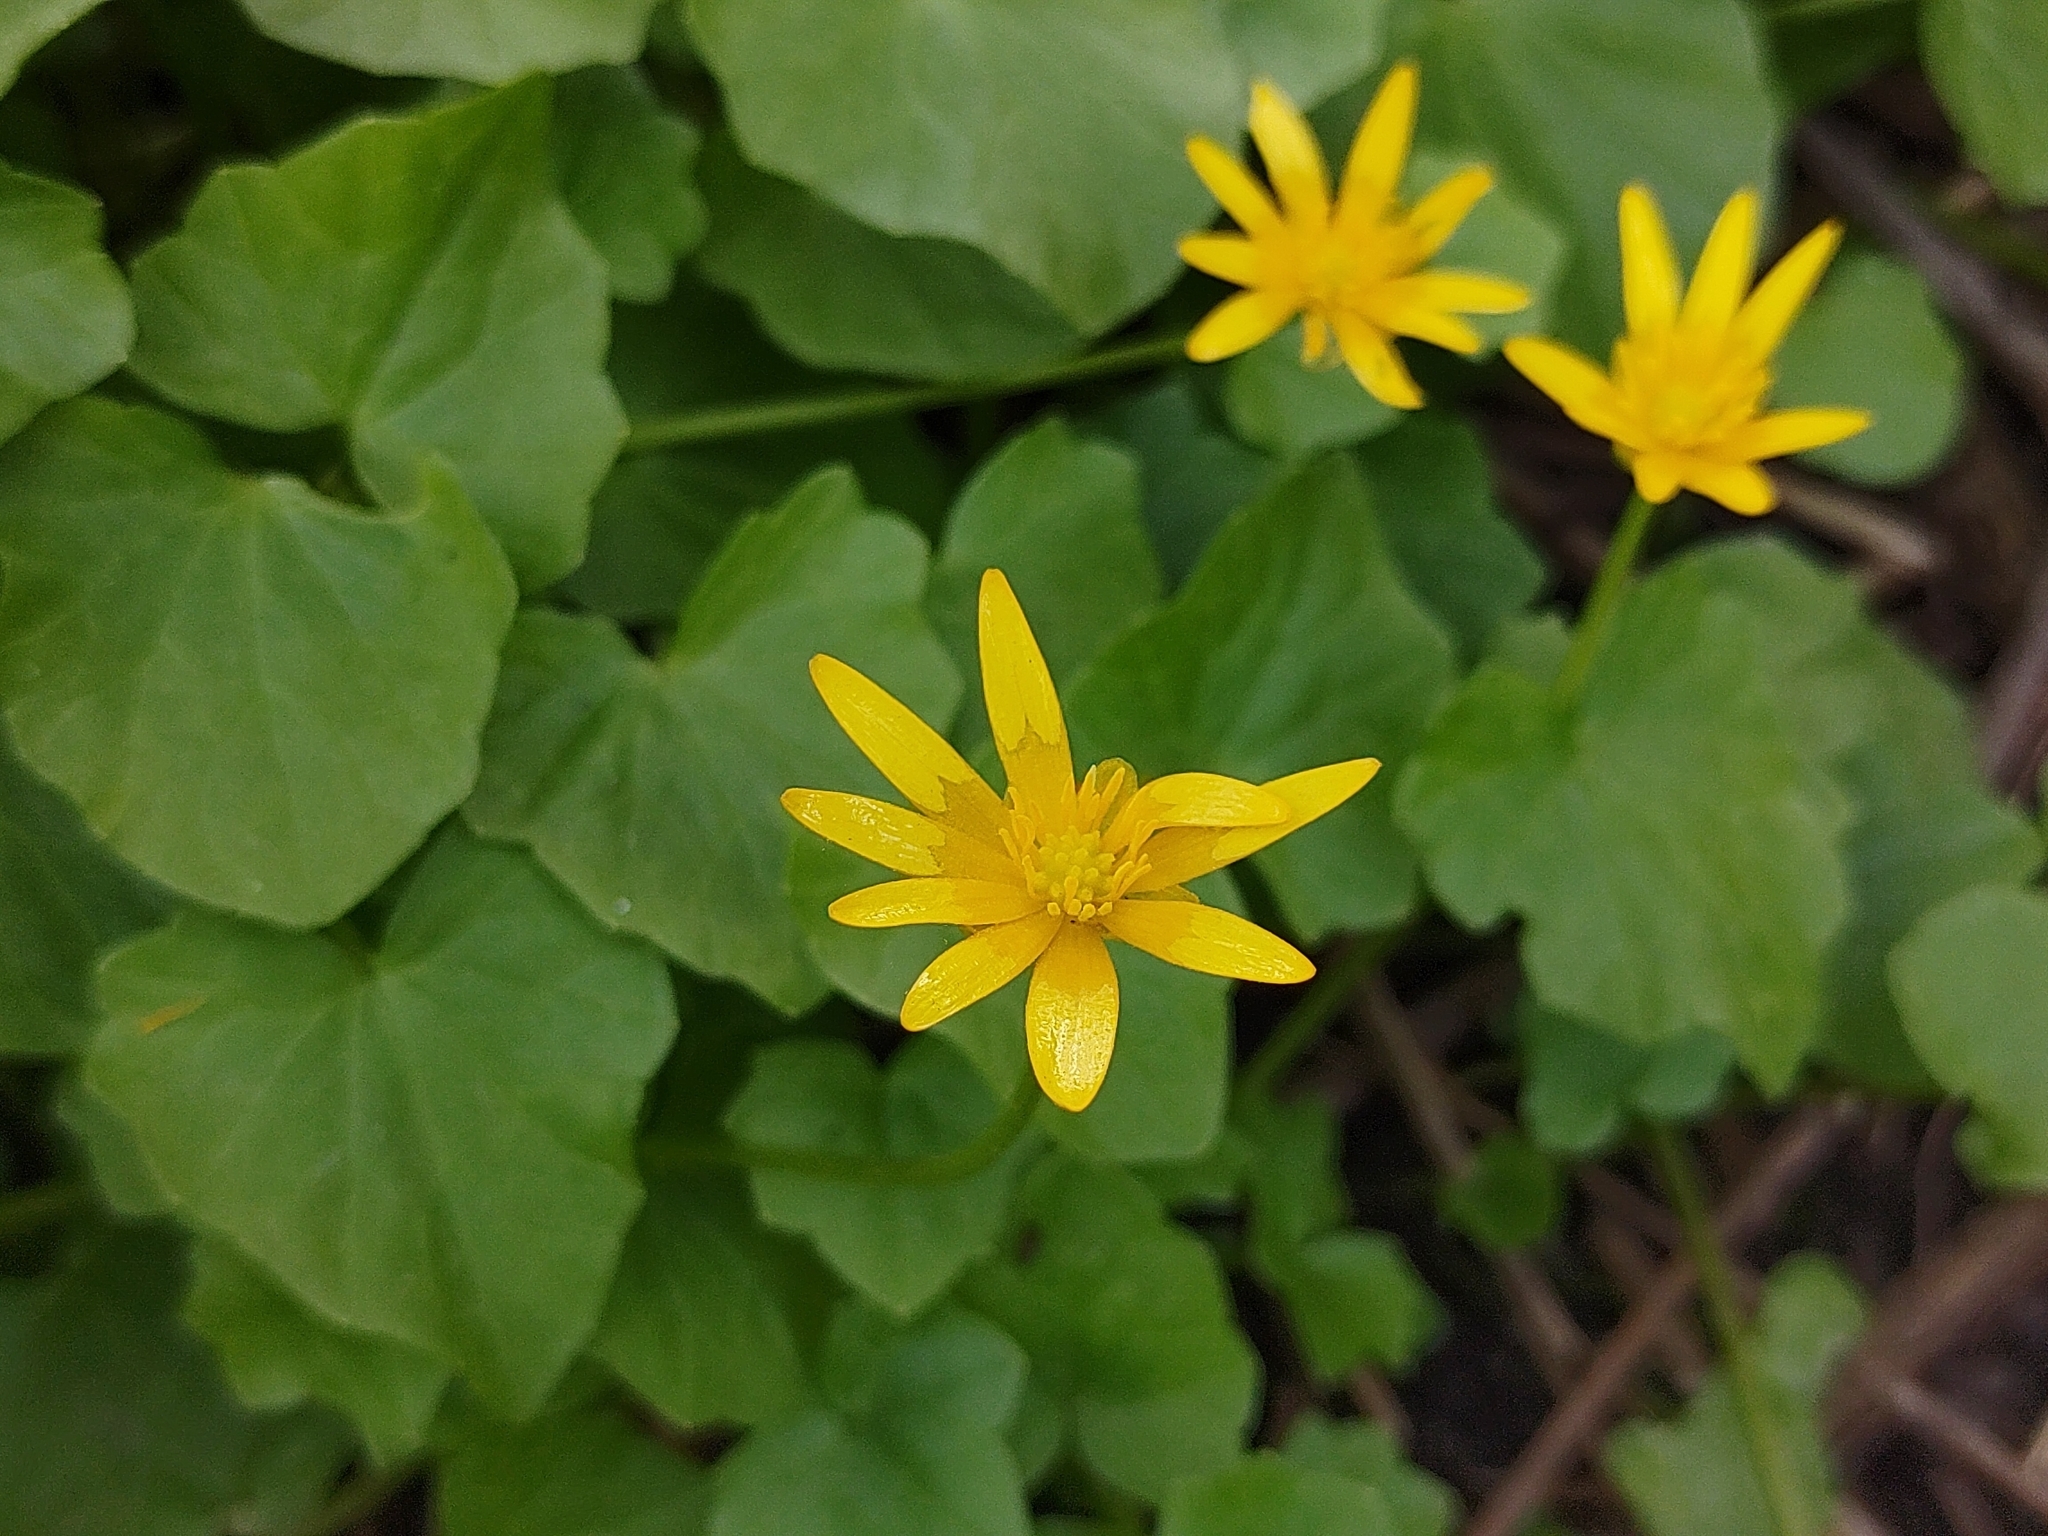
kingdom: Plantae
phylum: Tracheophyta
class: Magnoliopsida
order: Ranunculales
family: Ranunculaceae
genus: Ficaria
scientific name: Ficaria verna
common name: Lesser celandine
